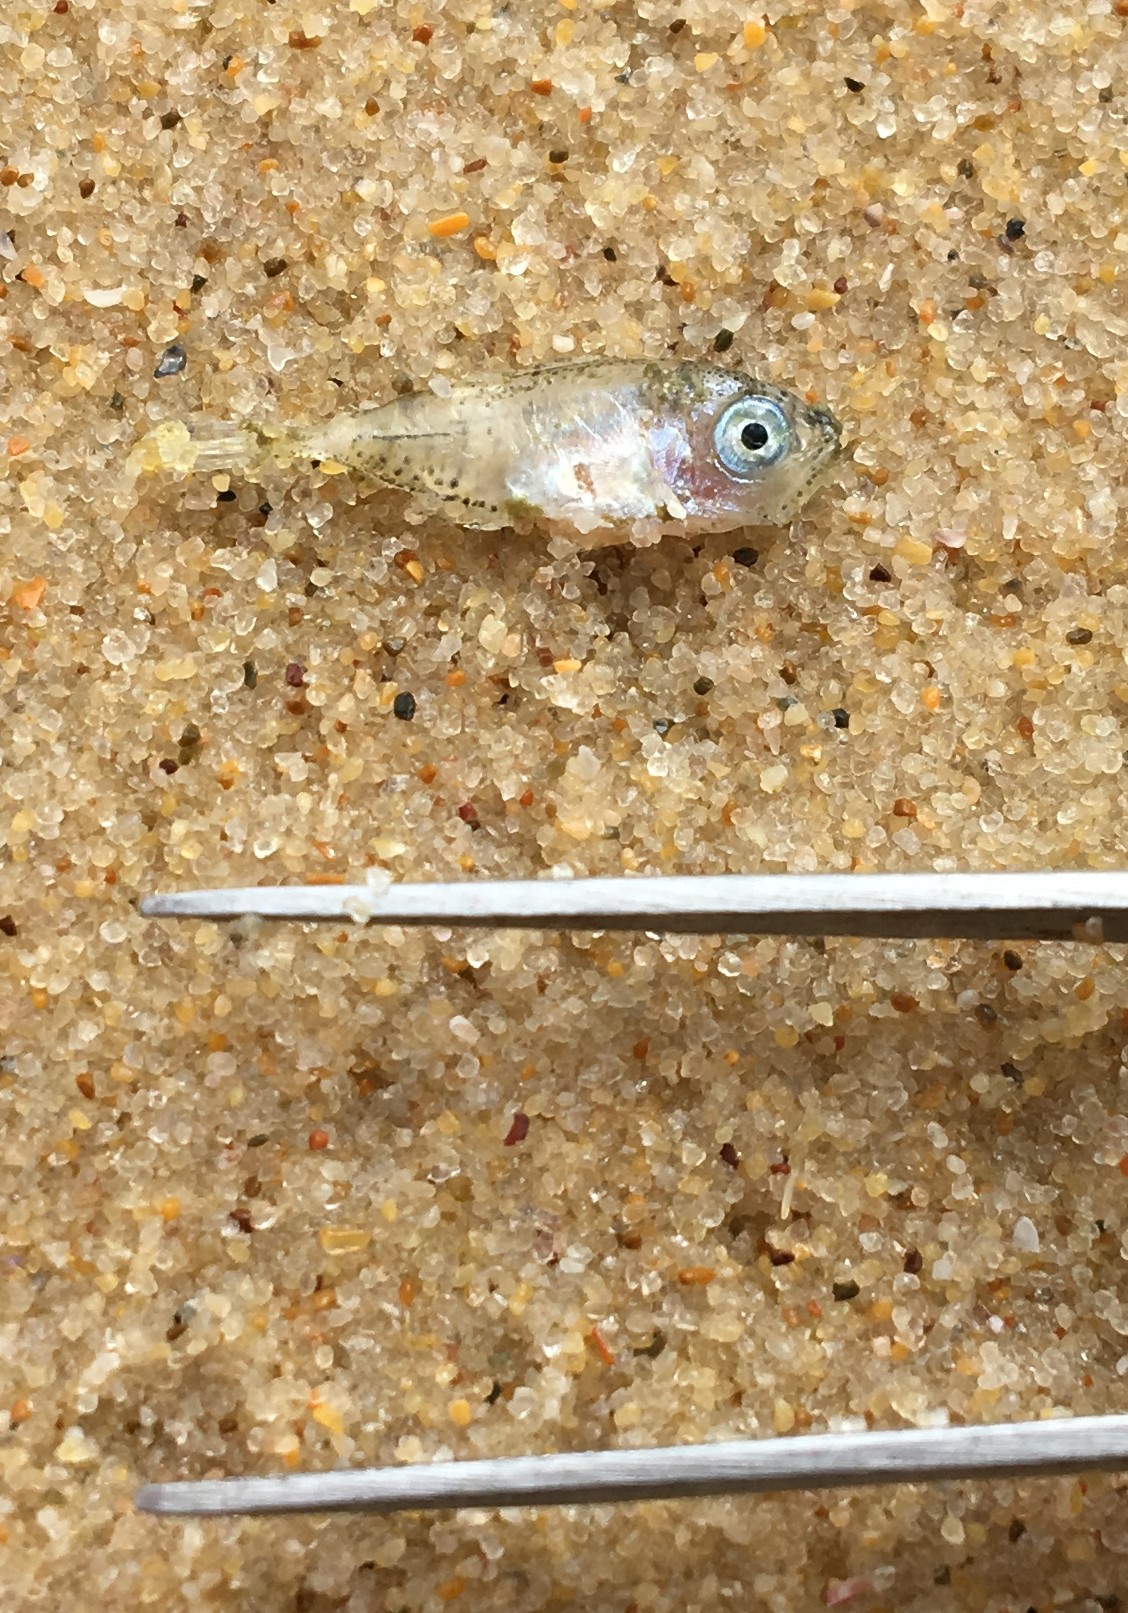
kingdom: Animalia
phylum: Chordata
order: Perciformes
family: Carangidae
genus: Trachurus
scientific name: Trachurus novaezelandiae
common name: Yellowtail horse mackerel
